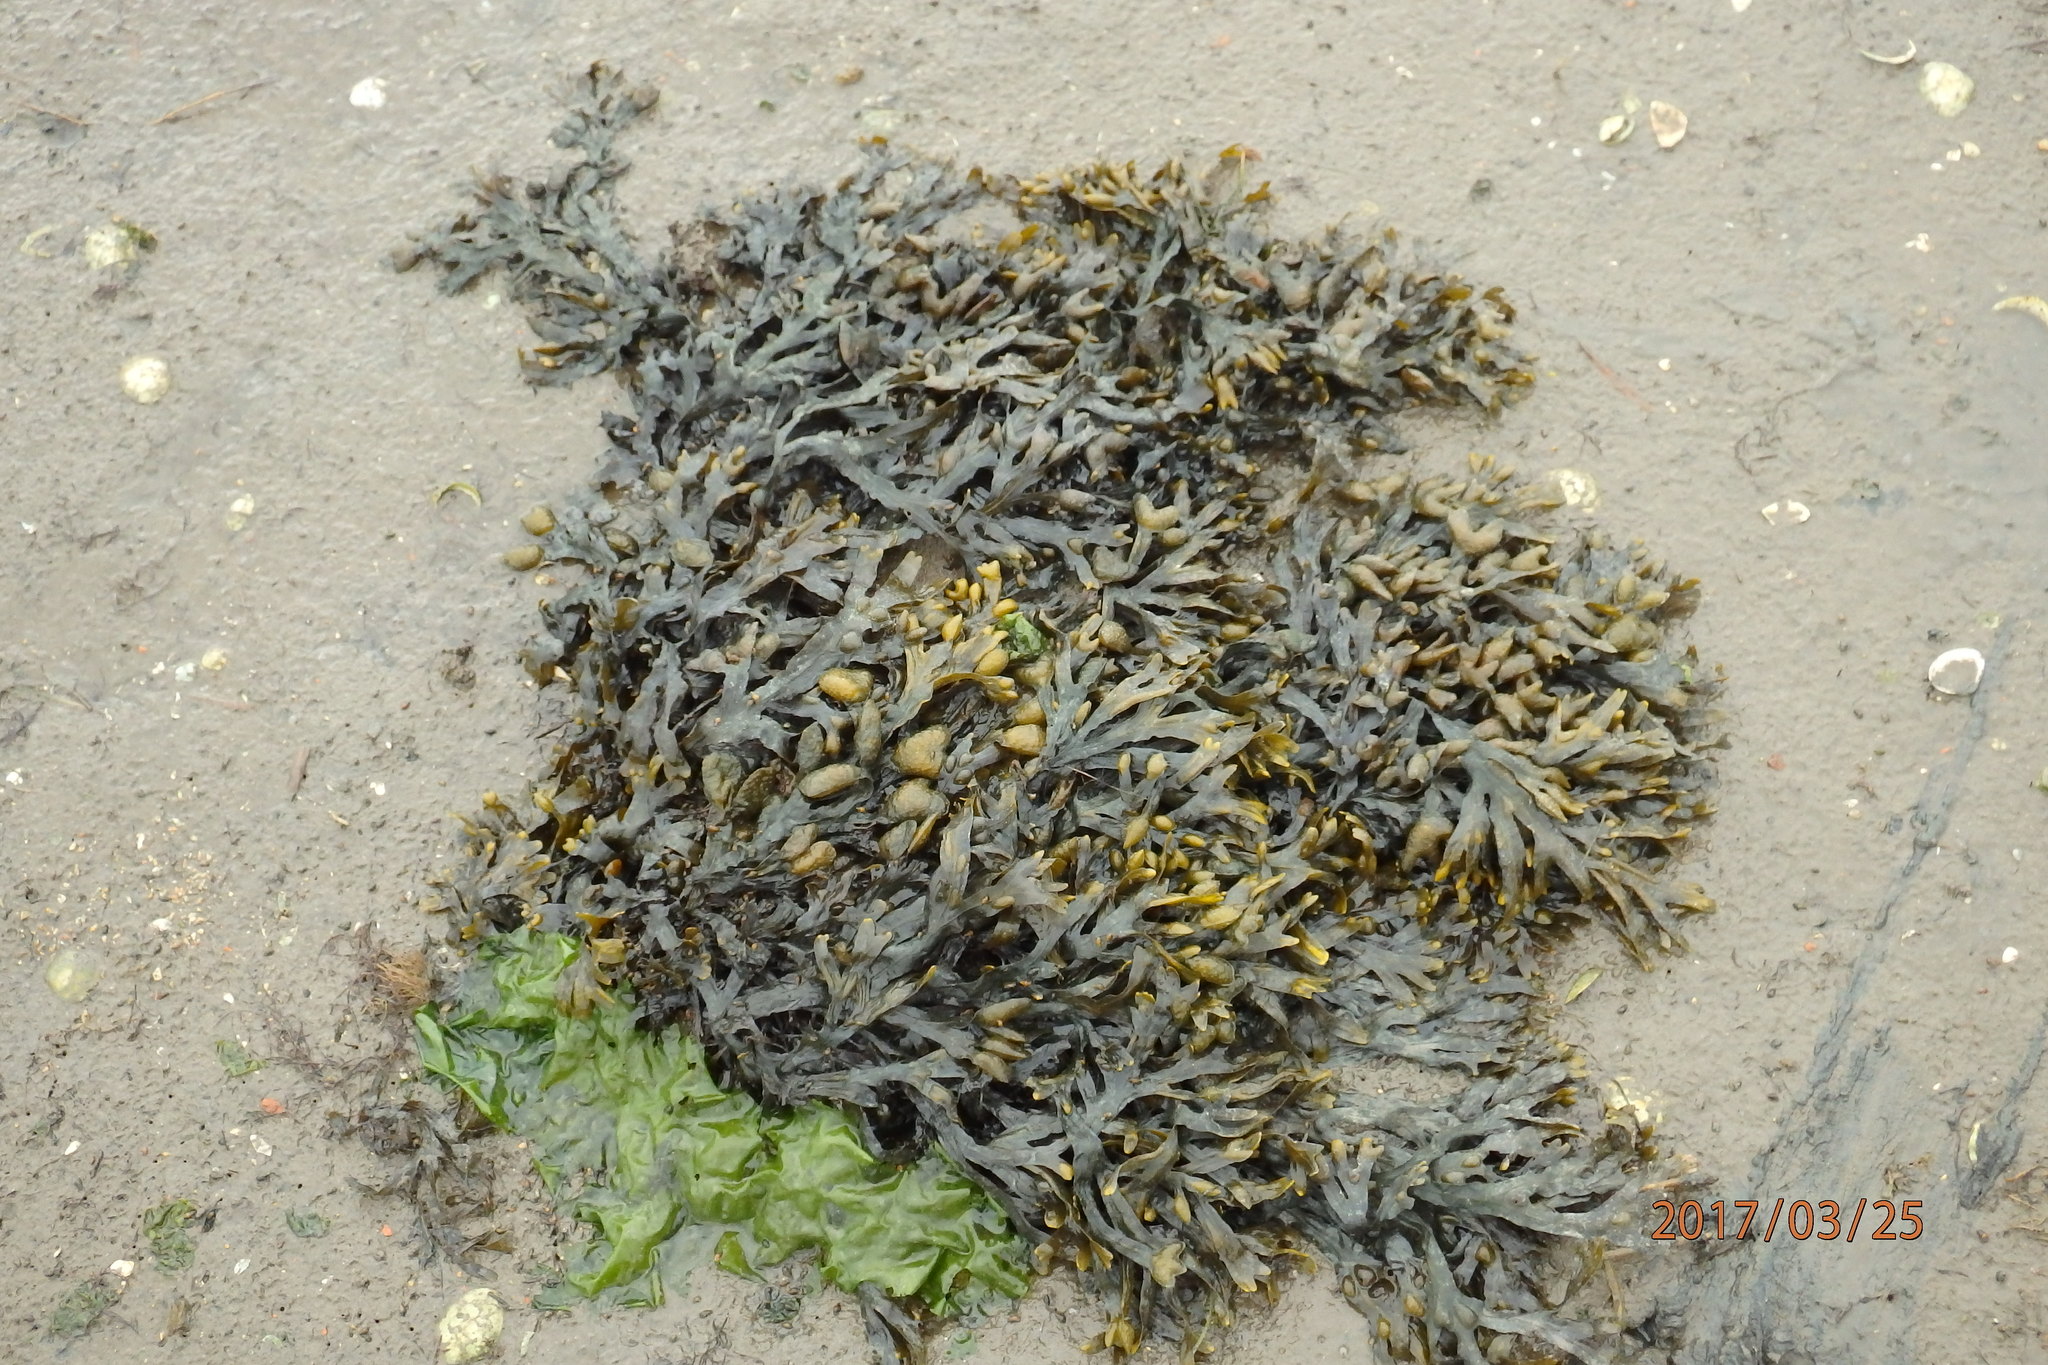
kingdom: Chromista
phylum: Ochrophyta
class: Phaeophyceae
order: Fucales
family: Fucaceae
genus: Fucus
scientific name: Fucus vesiculosus
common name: Bladder wrack
